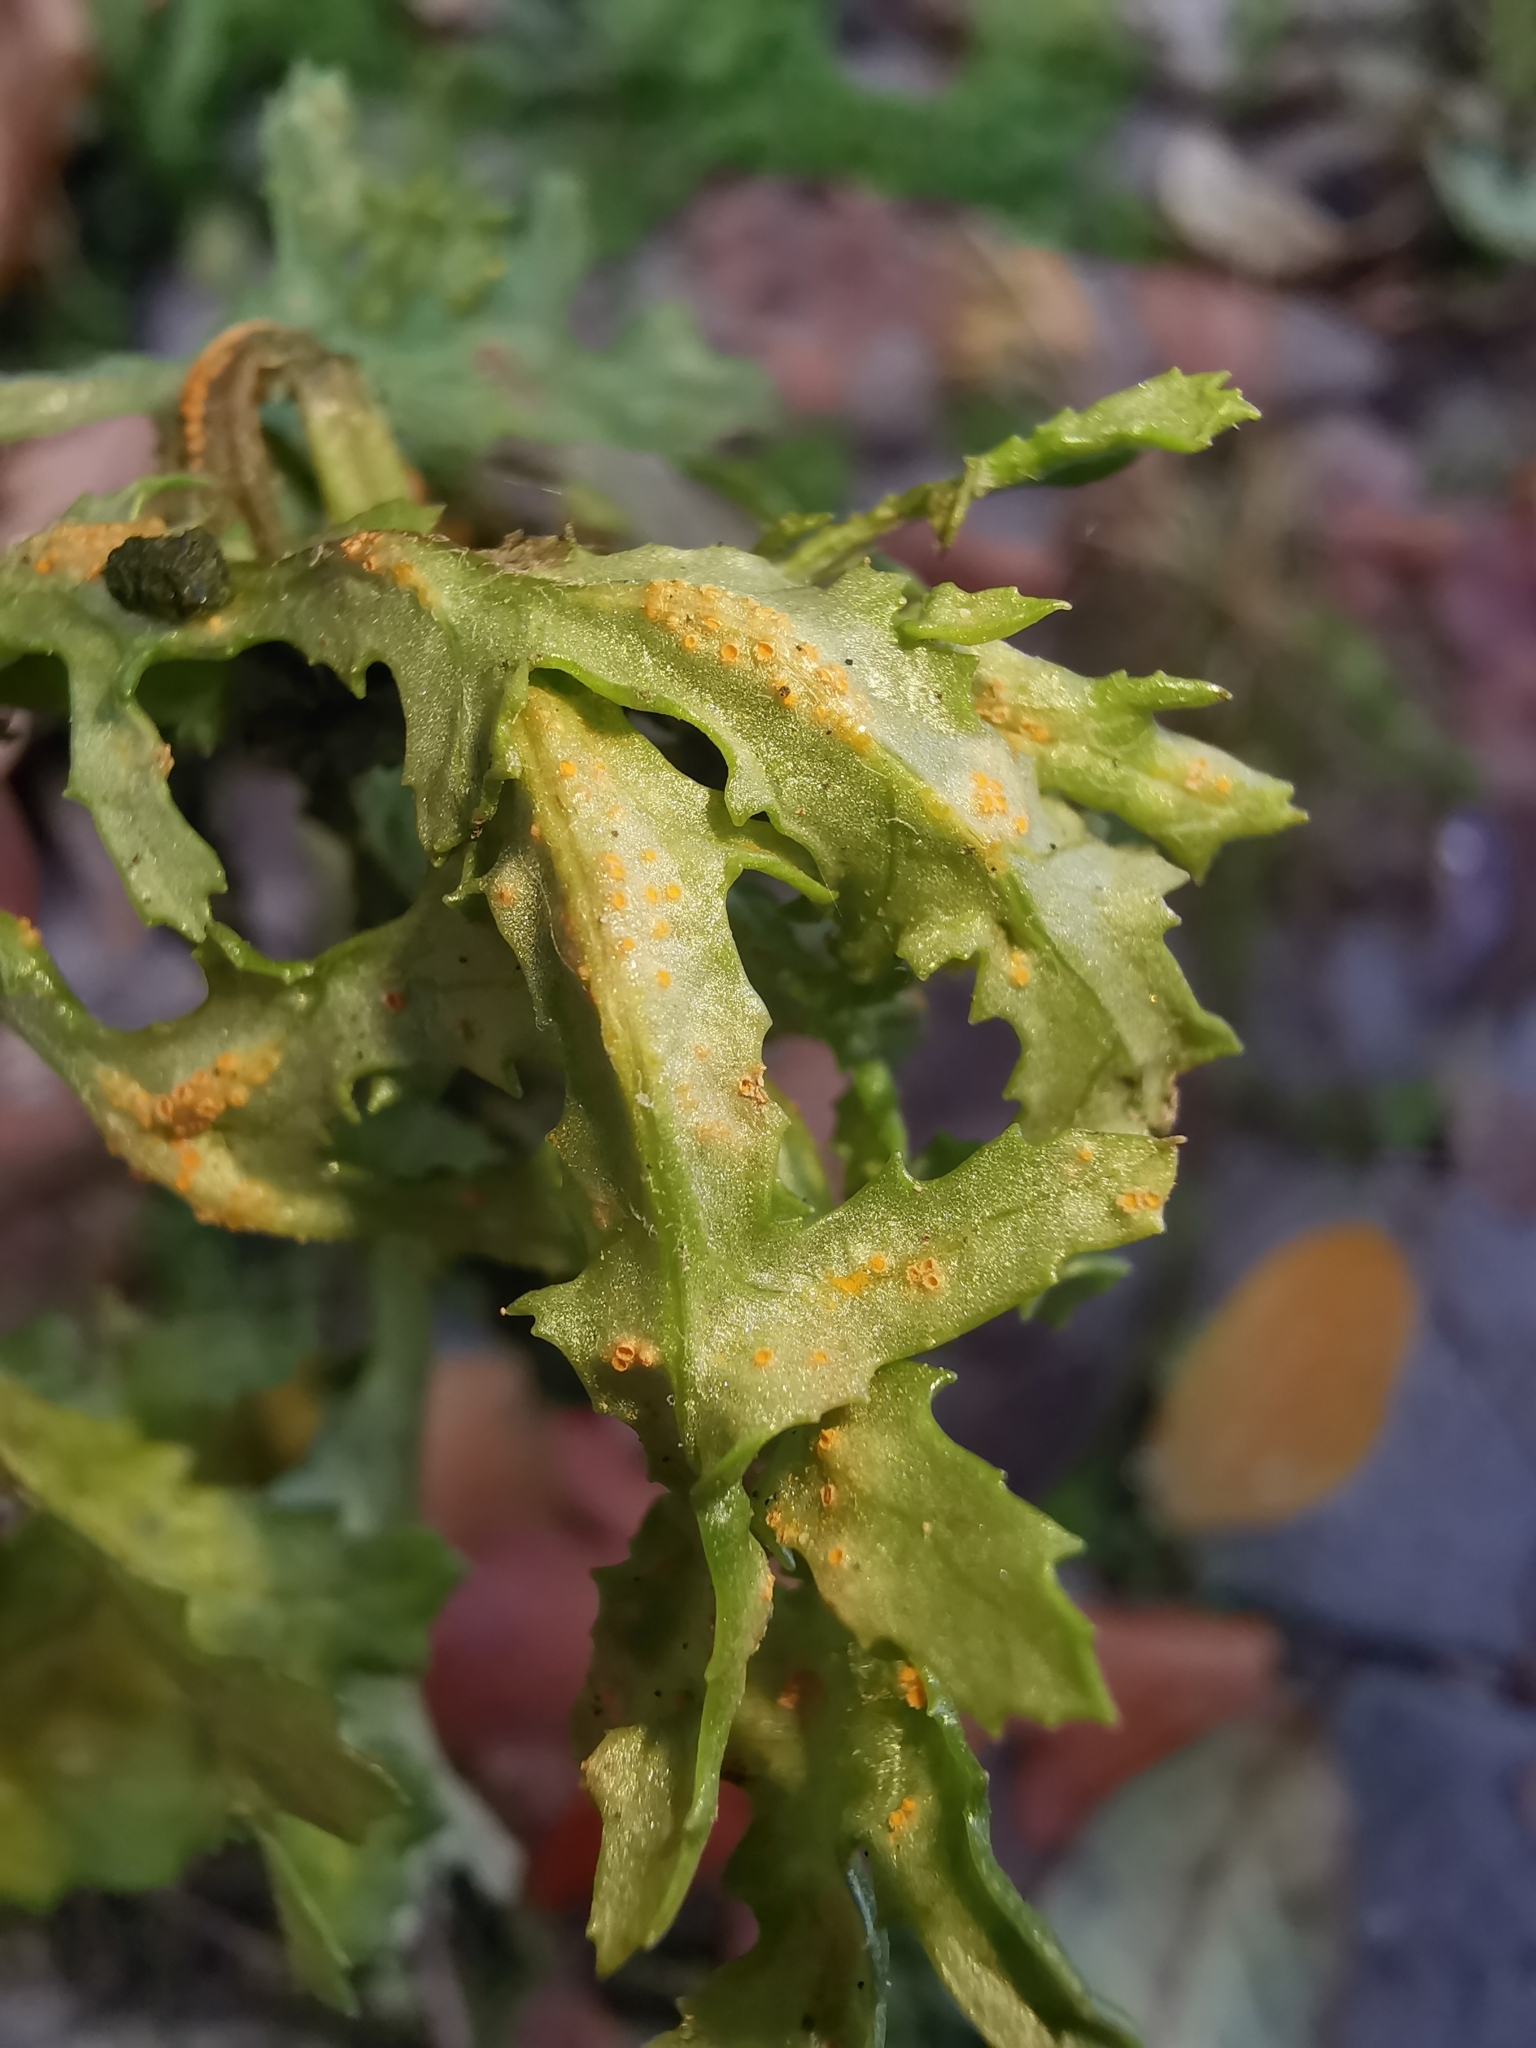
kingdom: Fungi
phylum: Basidiomycota
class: Pucciniomycetes
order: Pucciniales
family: Pucciniaceae
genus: Puccinia
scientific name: Puccinia lagenophorae
